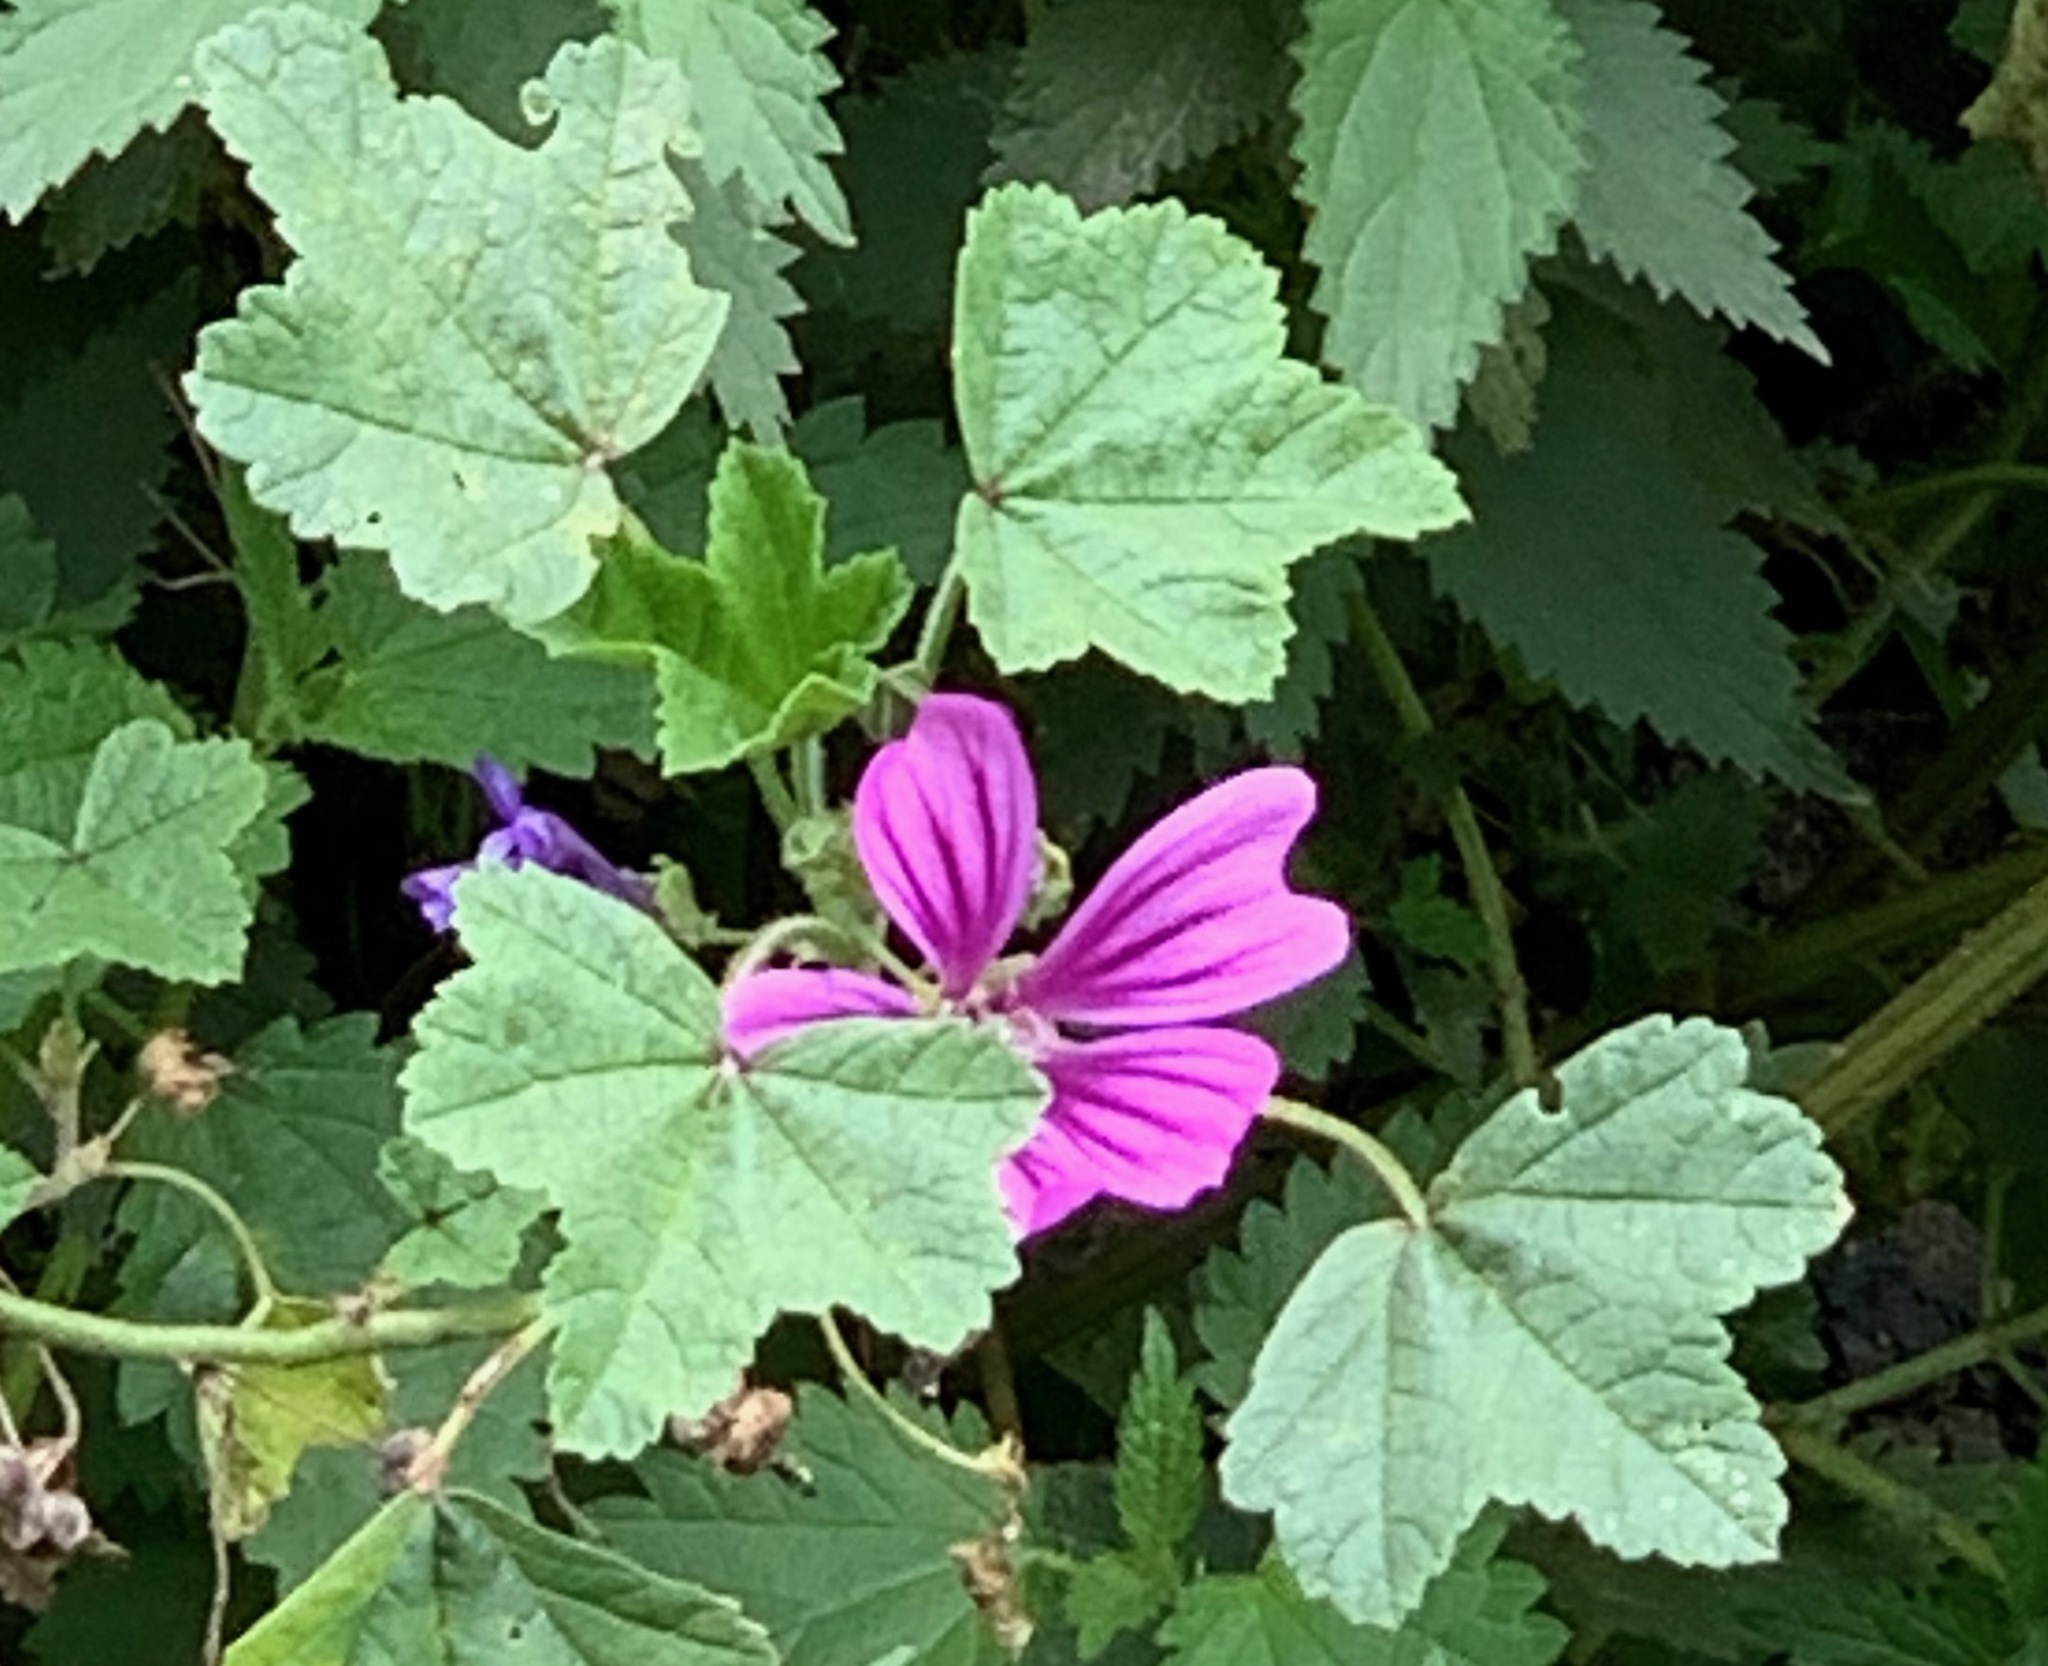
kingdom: Plantae
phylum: Tracheophyta
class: Magnoliopsida
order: Malvales
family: Malvaceae
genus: Malva
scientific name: Malva sylvestris
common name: Common mallow
